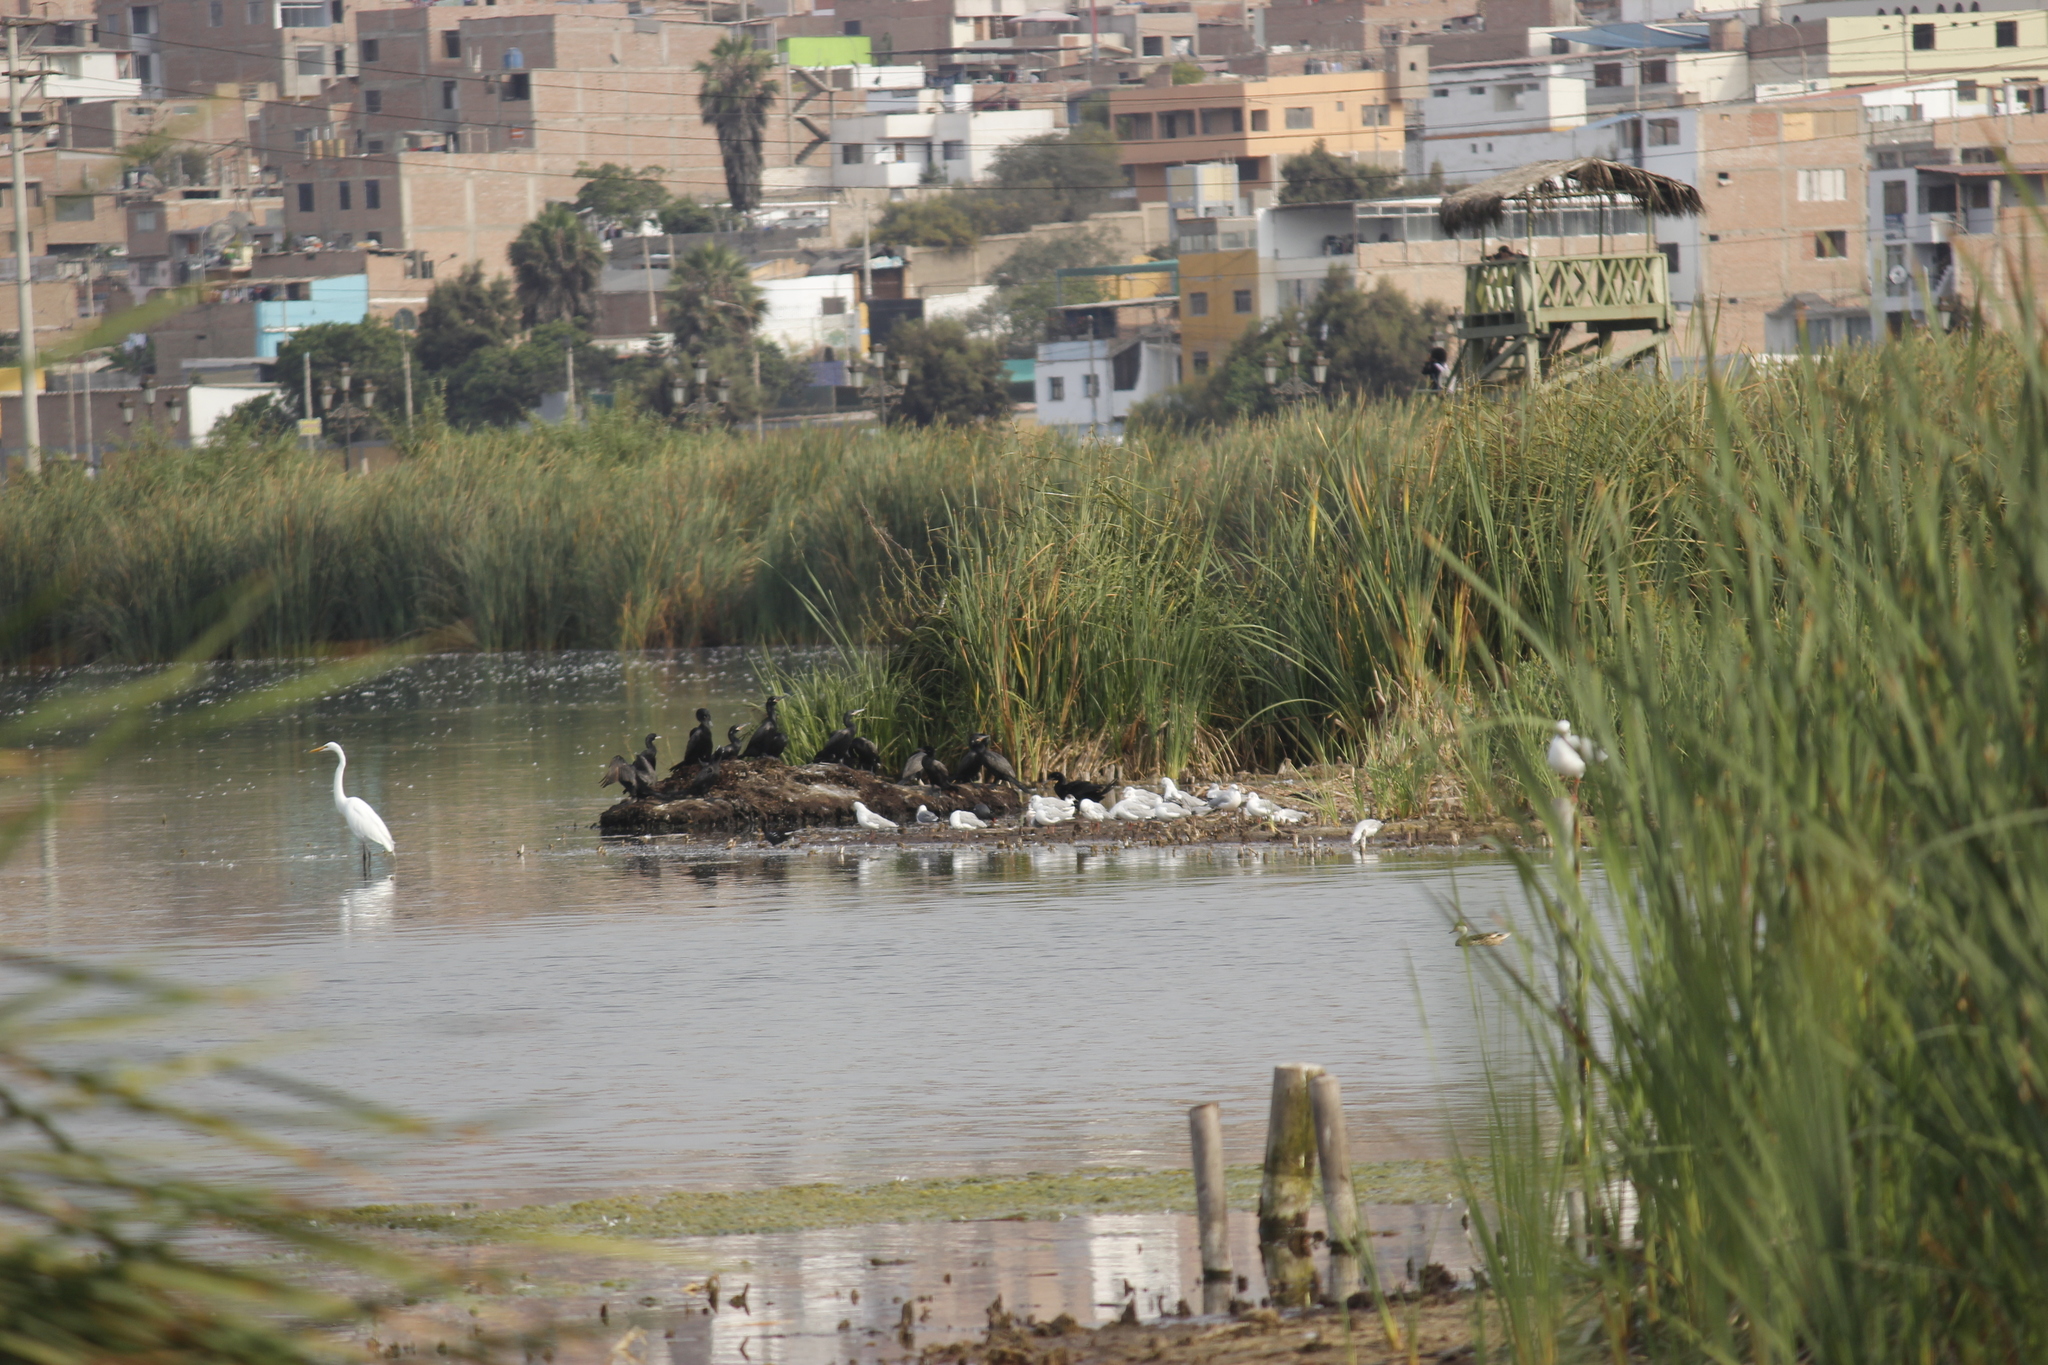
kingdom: Animalia
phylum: Chordata
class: Aves
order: Suliformes
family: Phalacrocoracidae
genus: Phalacrocorax
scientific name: Phalacrocorax brasilianus
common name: Neotropic cormorant
